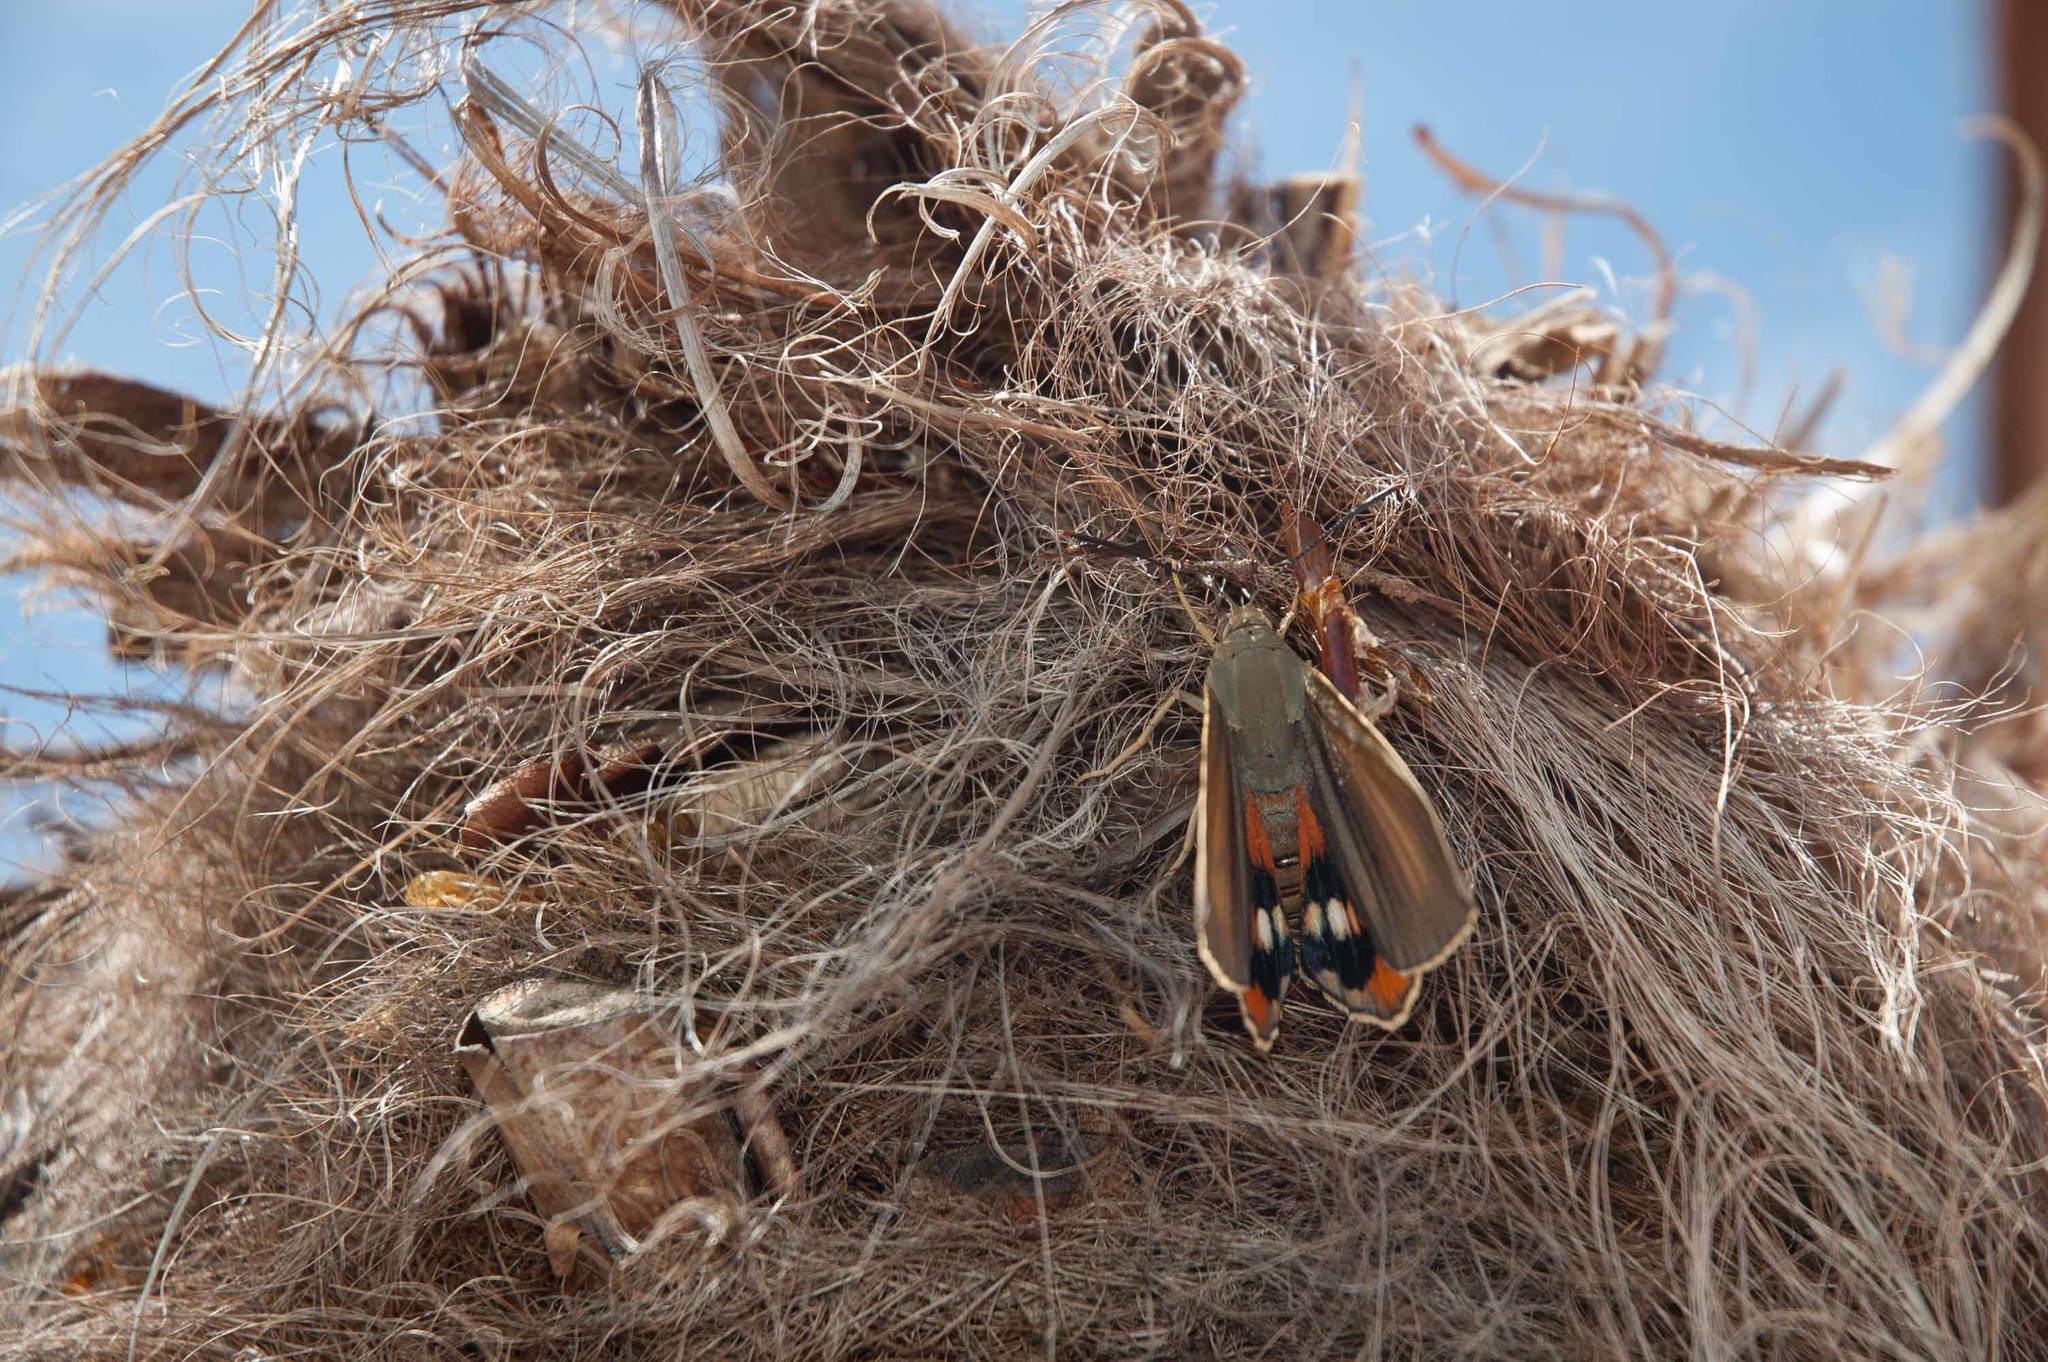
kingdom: Animalia
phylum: Arthropoda
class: Insecta
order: Lepidoptera
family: Castniidae
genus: Paysandisia
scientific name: Paysandisia archon
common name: Palm moth
